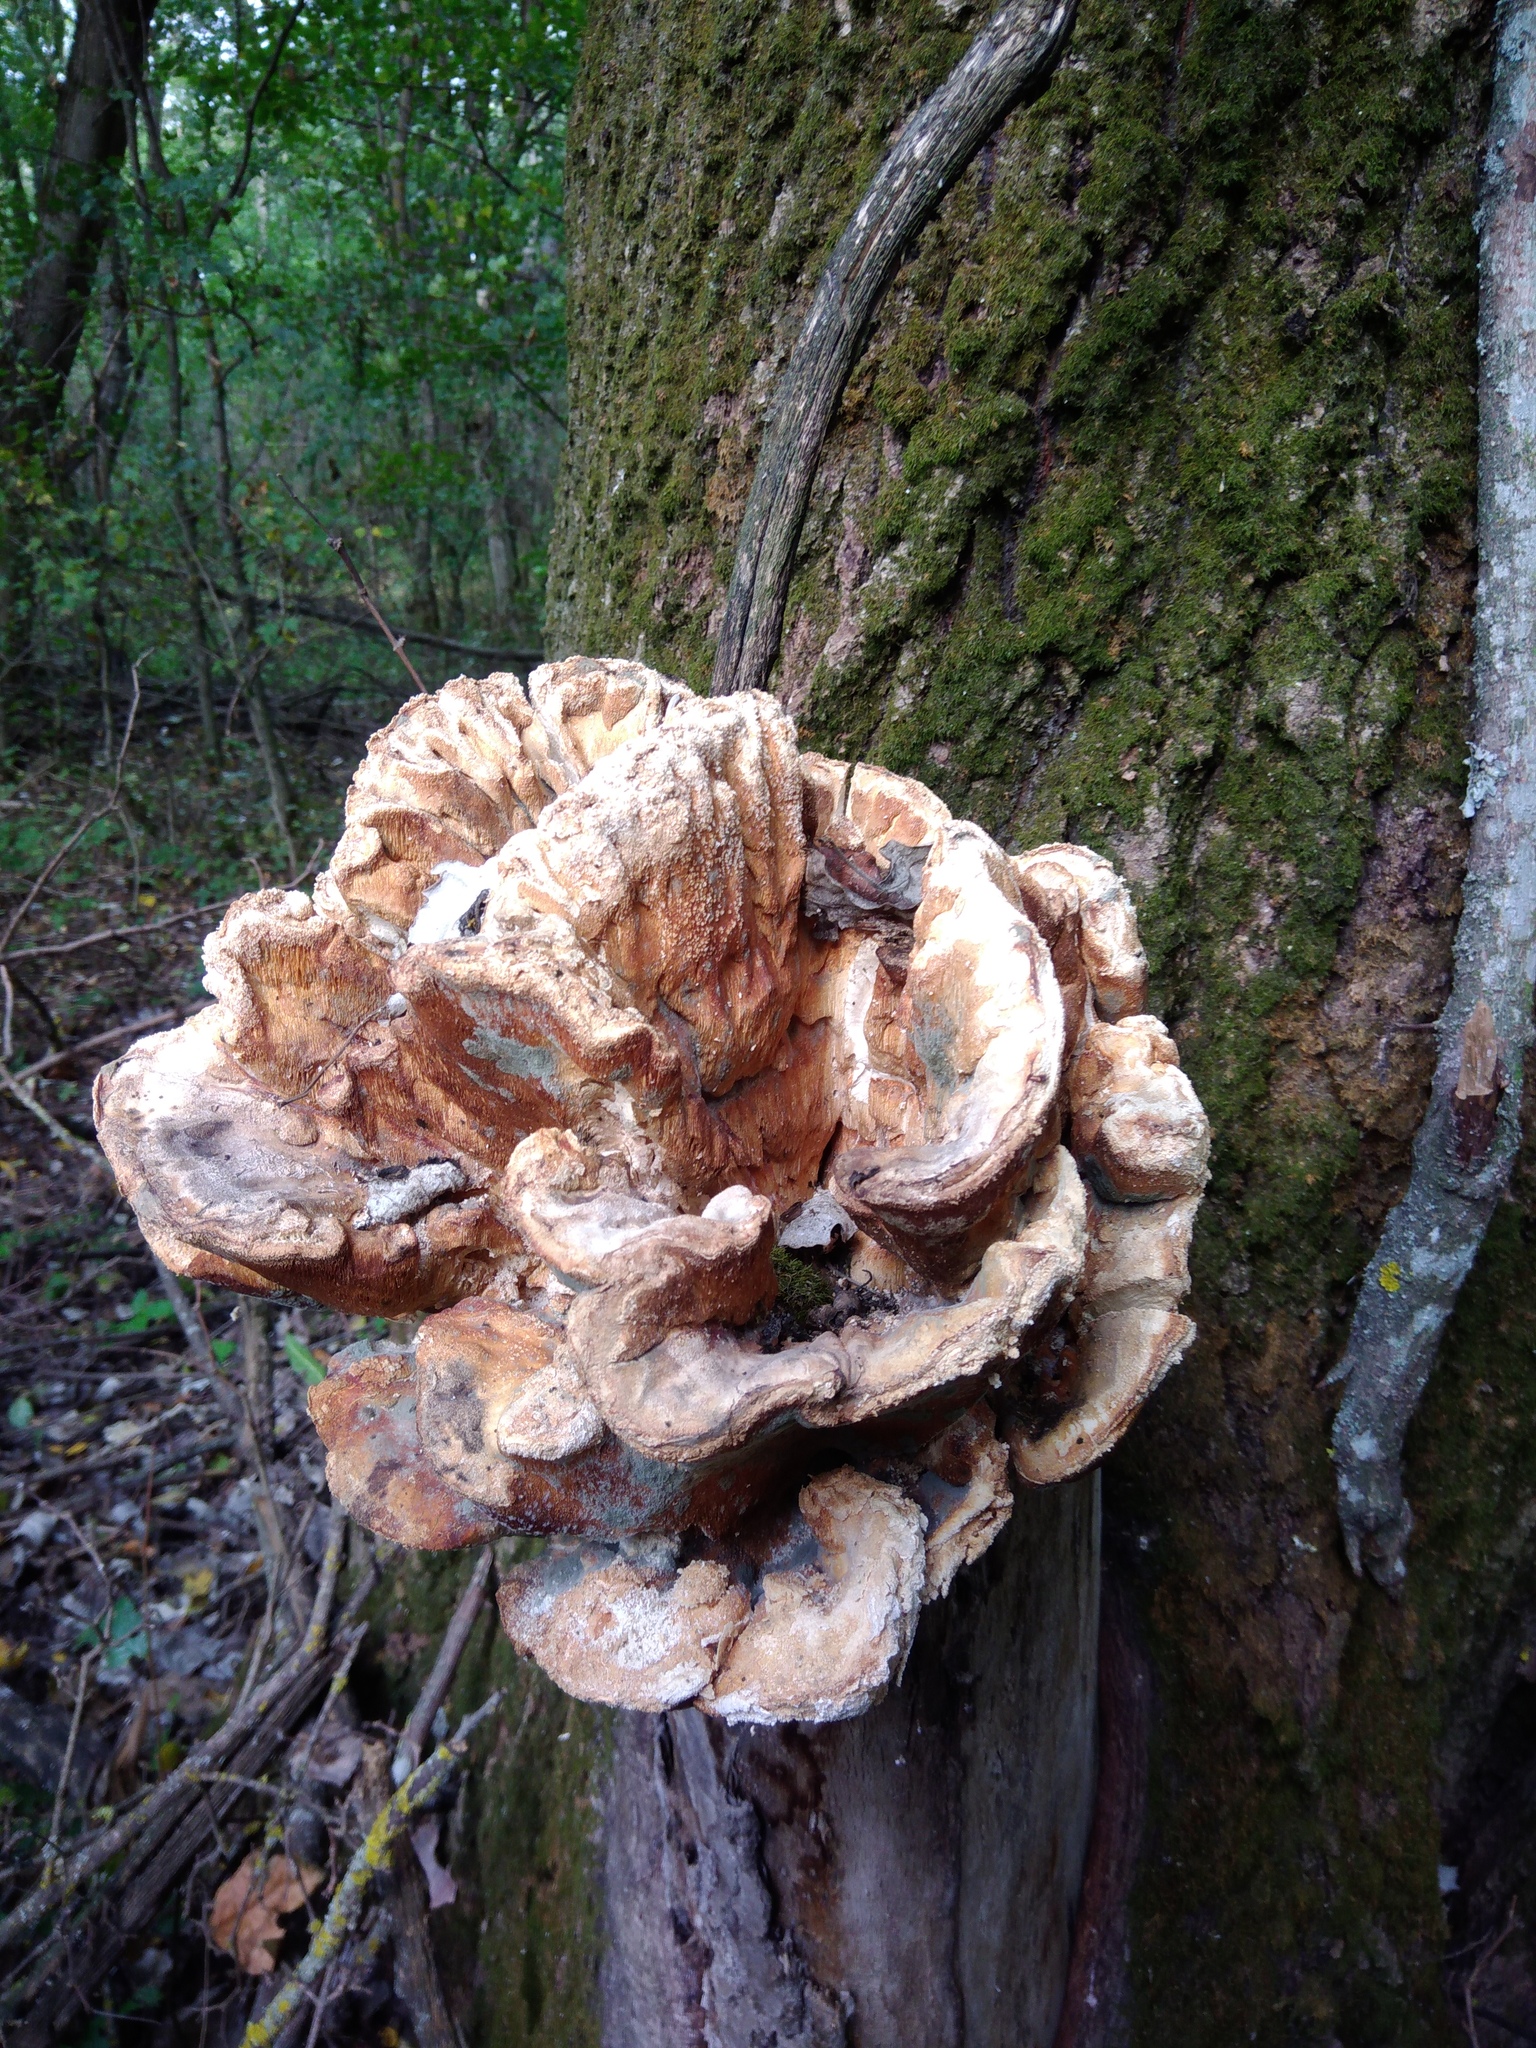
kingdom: Fungi
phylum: Basidiomycota
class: Agaricomycetes
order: Polyporales
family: Laetiporaceae
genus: Laetiporus
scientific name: Laetiporus sulphureus
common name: Chicken of the woods
